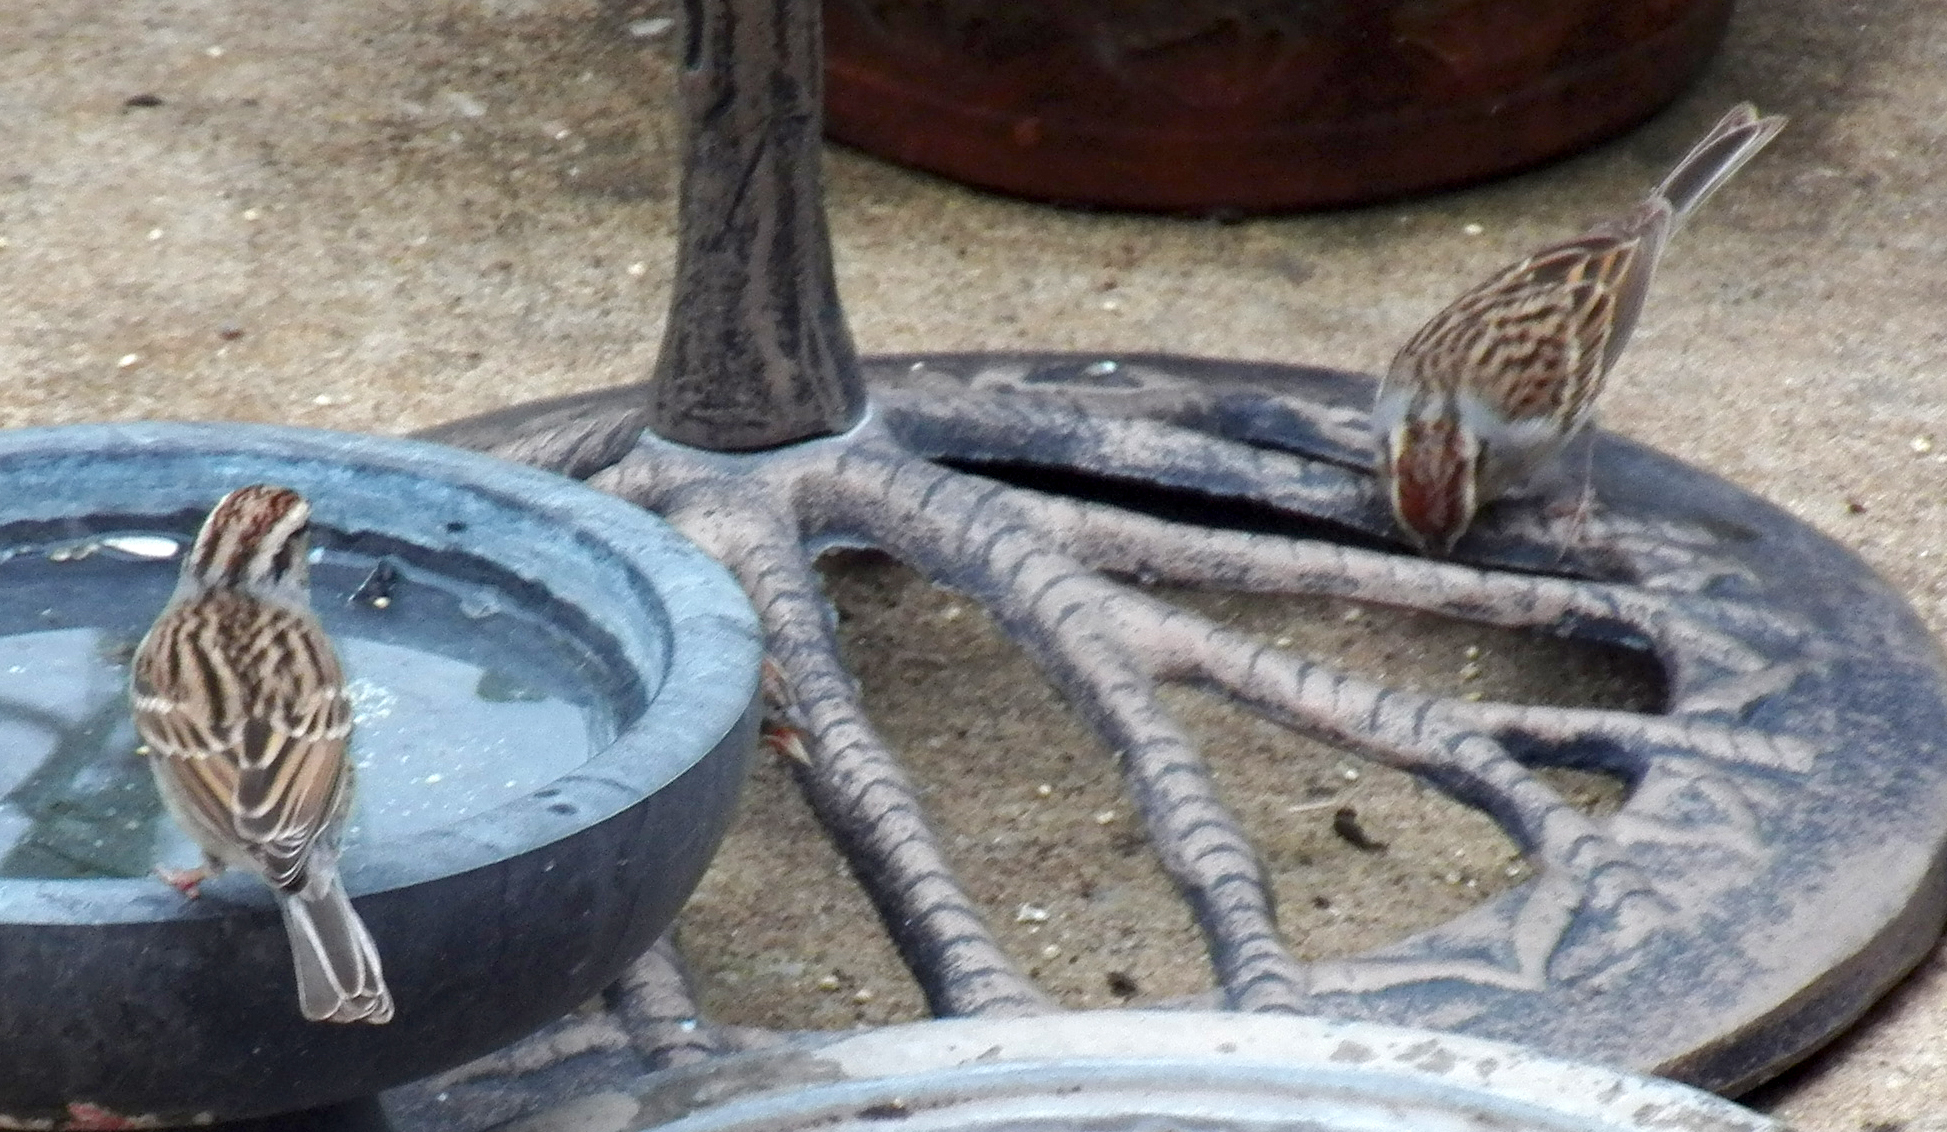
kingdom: Animalia
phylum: Chordata
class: Aves
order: Passeriformes
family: Passerellidae
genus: Spizella
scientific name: Spizella passerina
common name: Chipping sparrow
